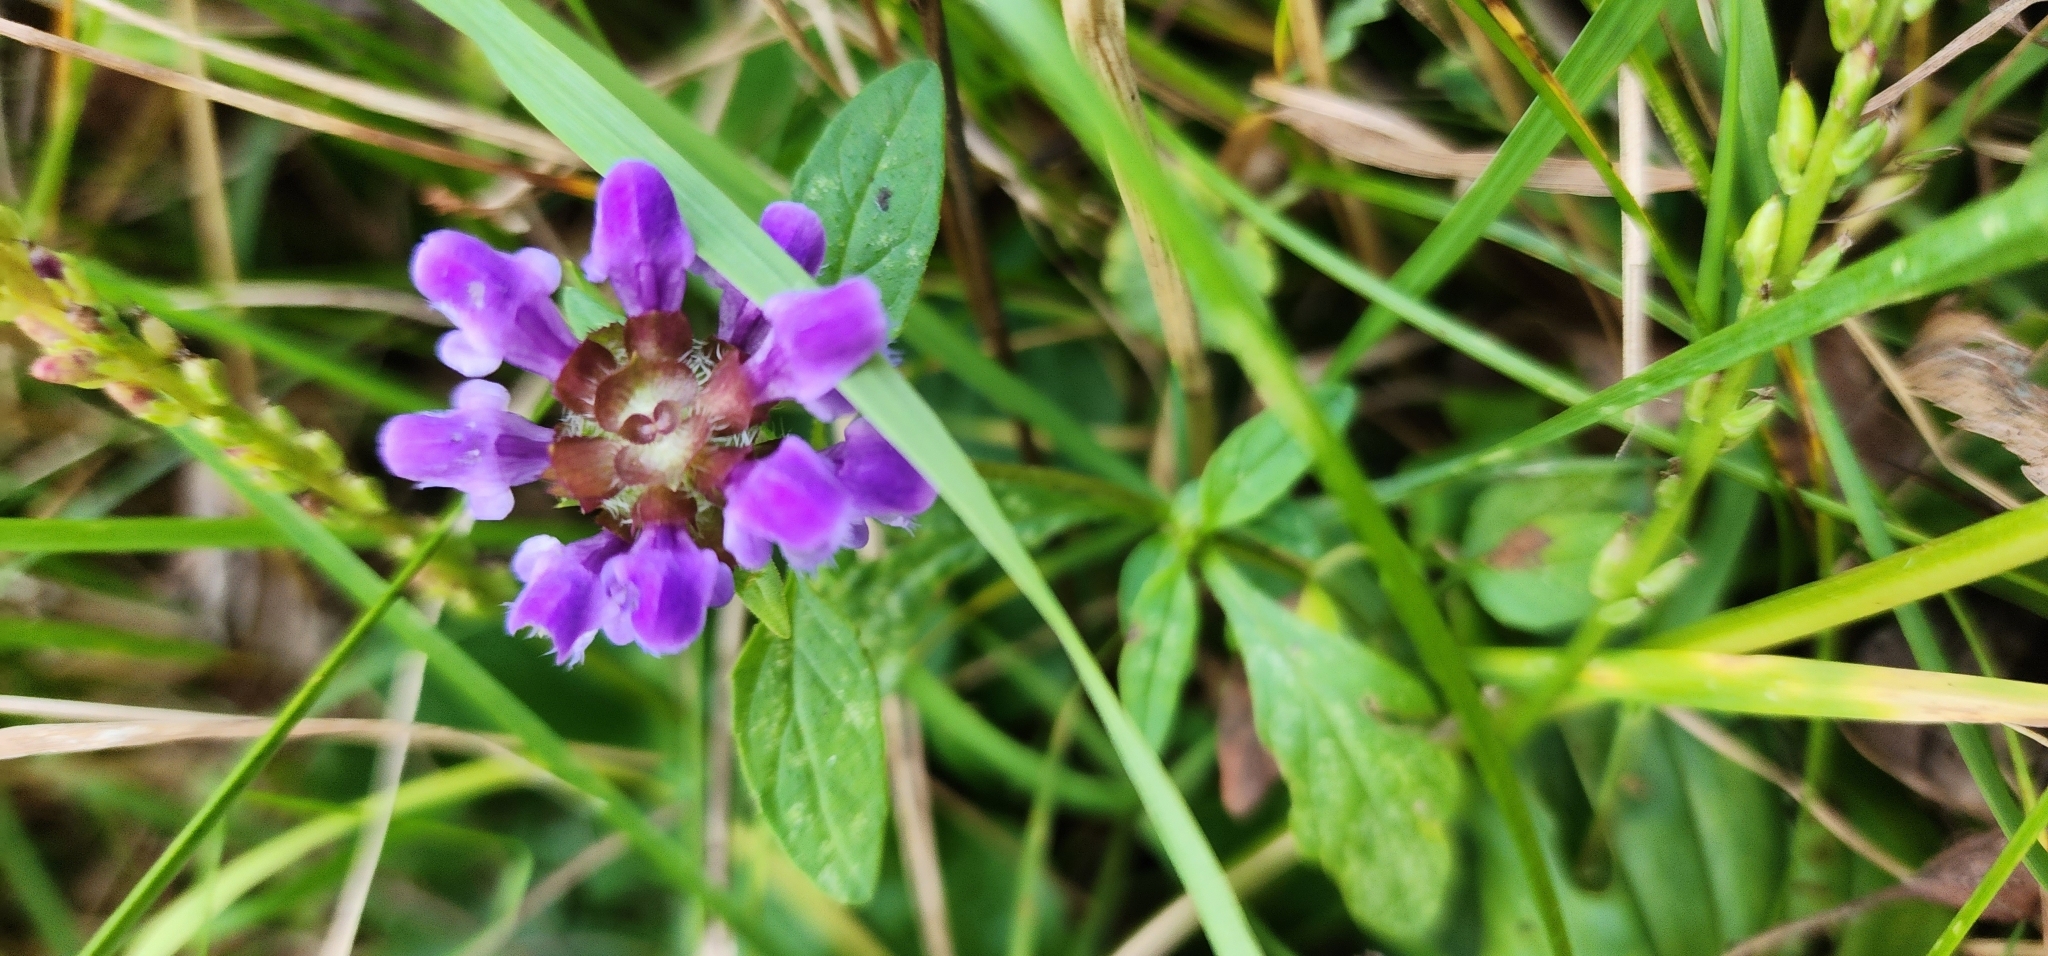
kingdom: Plantae
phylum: Tracheophyta
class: Magnoliopsida
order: Lamiales
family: Lamiaceae
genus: Prunella
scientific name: Prunella vulgaris
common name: Heal-all
